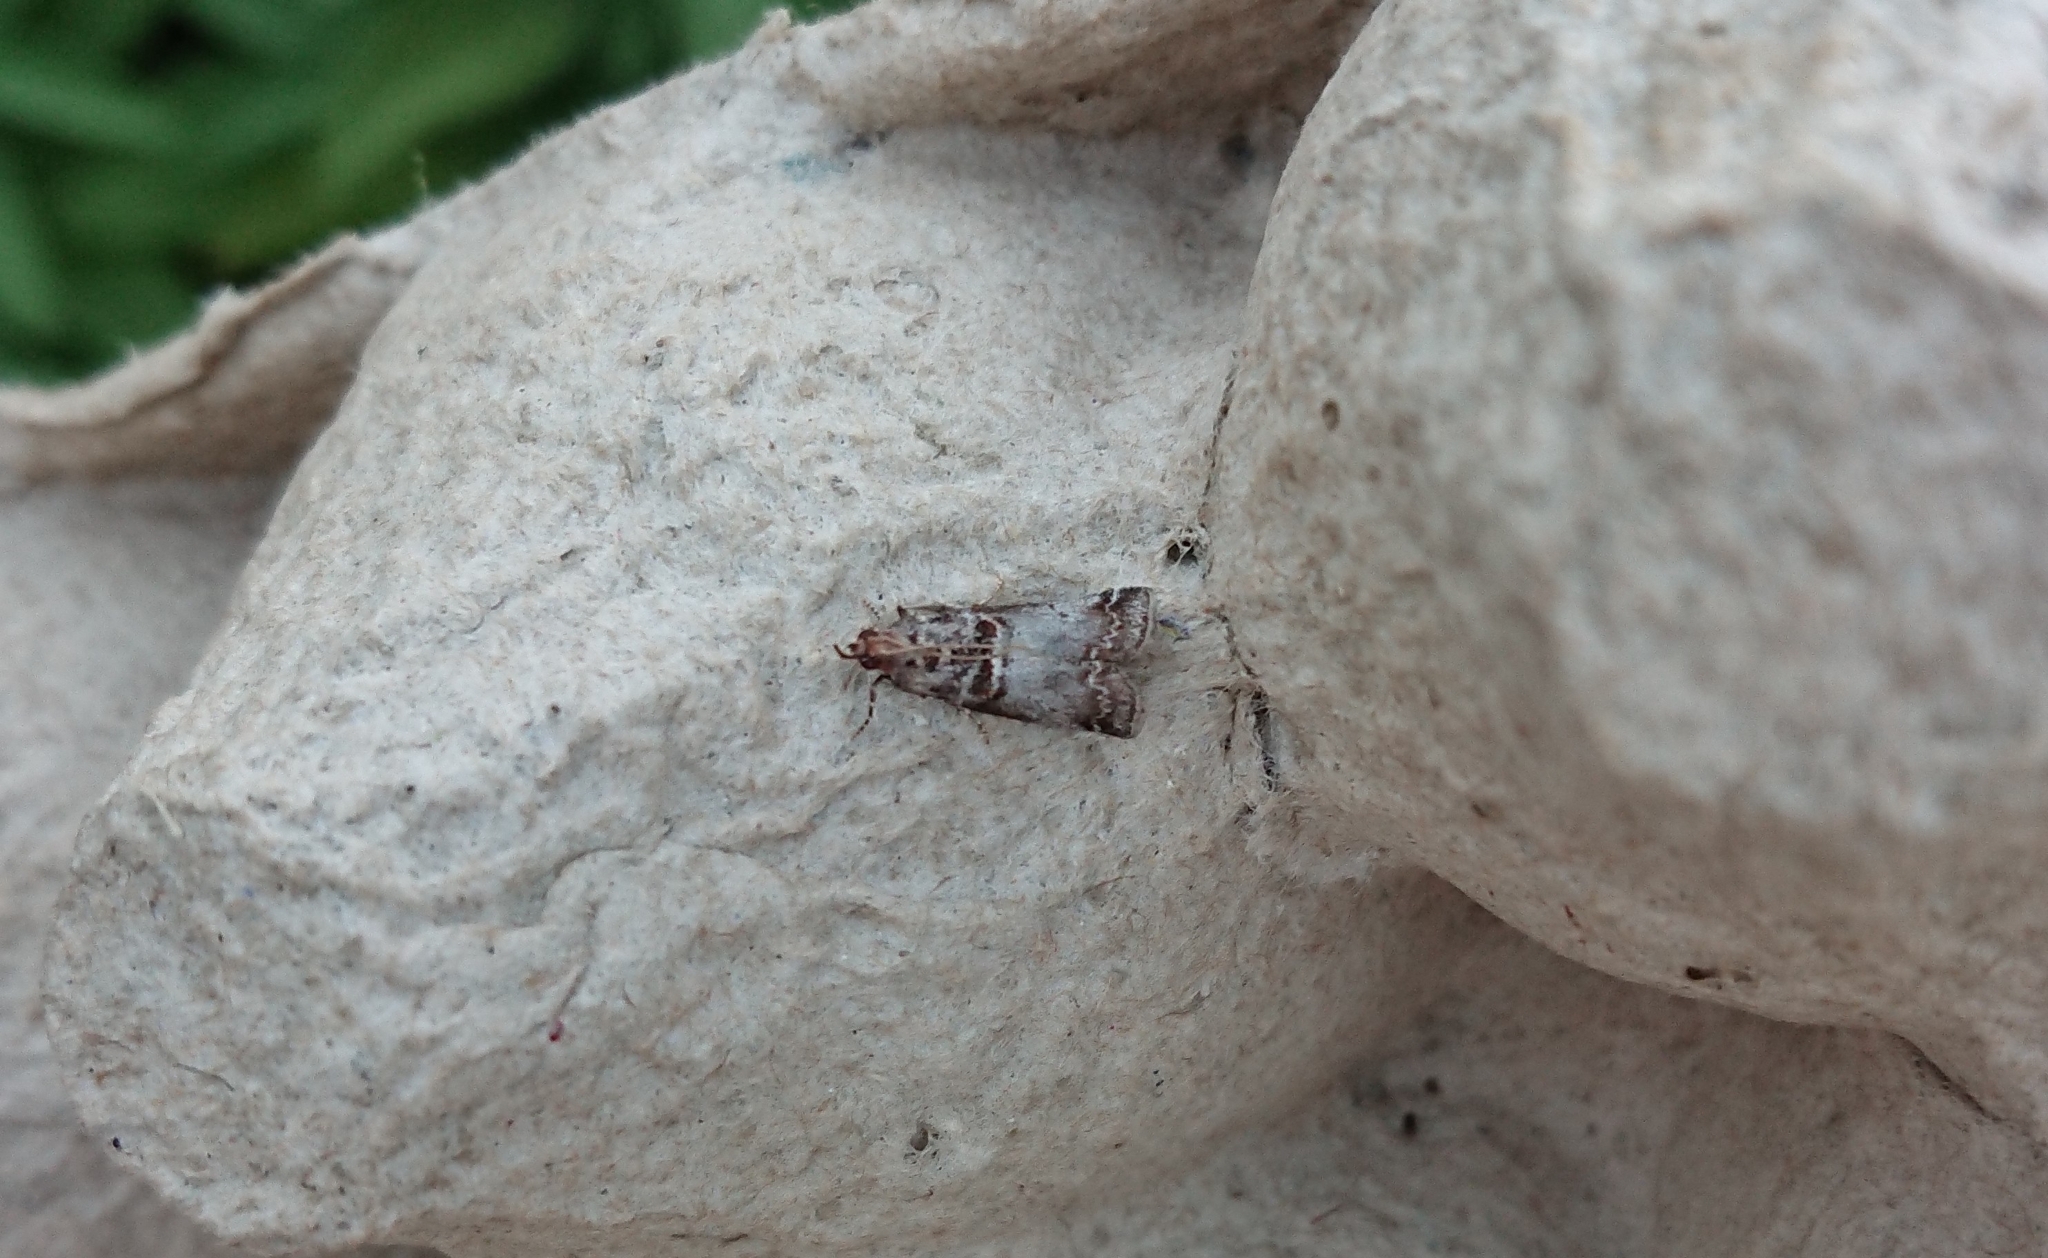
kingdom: Animalia
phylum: Arthropoda
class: Insecta
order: Lepidoptera
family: Pyralidae
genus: Acrobasis
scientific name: Acrobasis advenella
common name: Grey knot-horn
